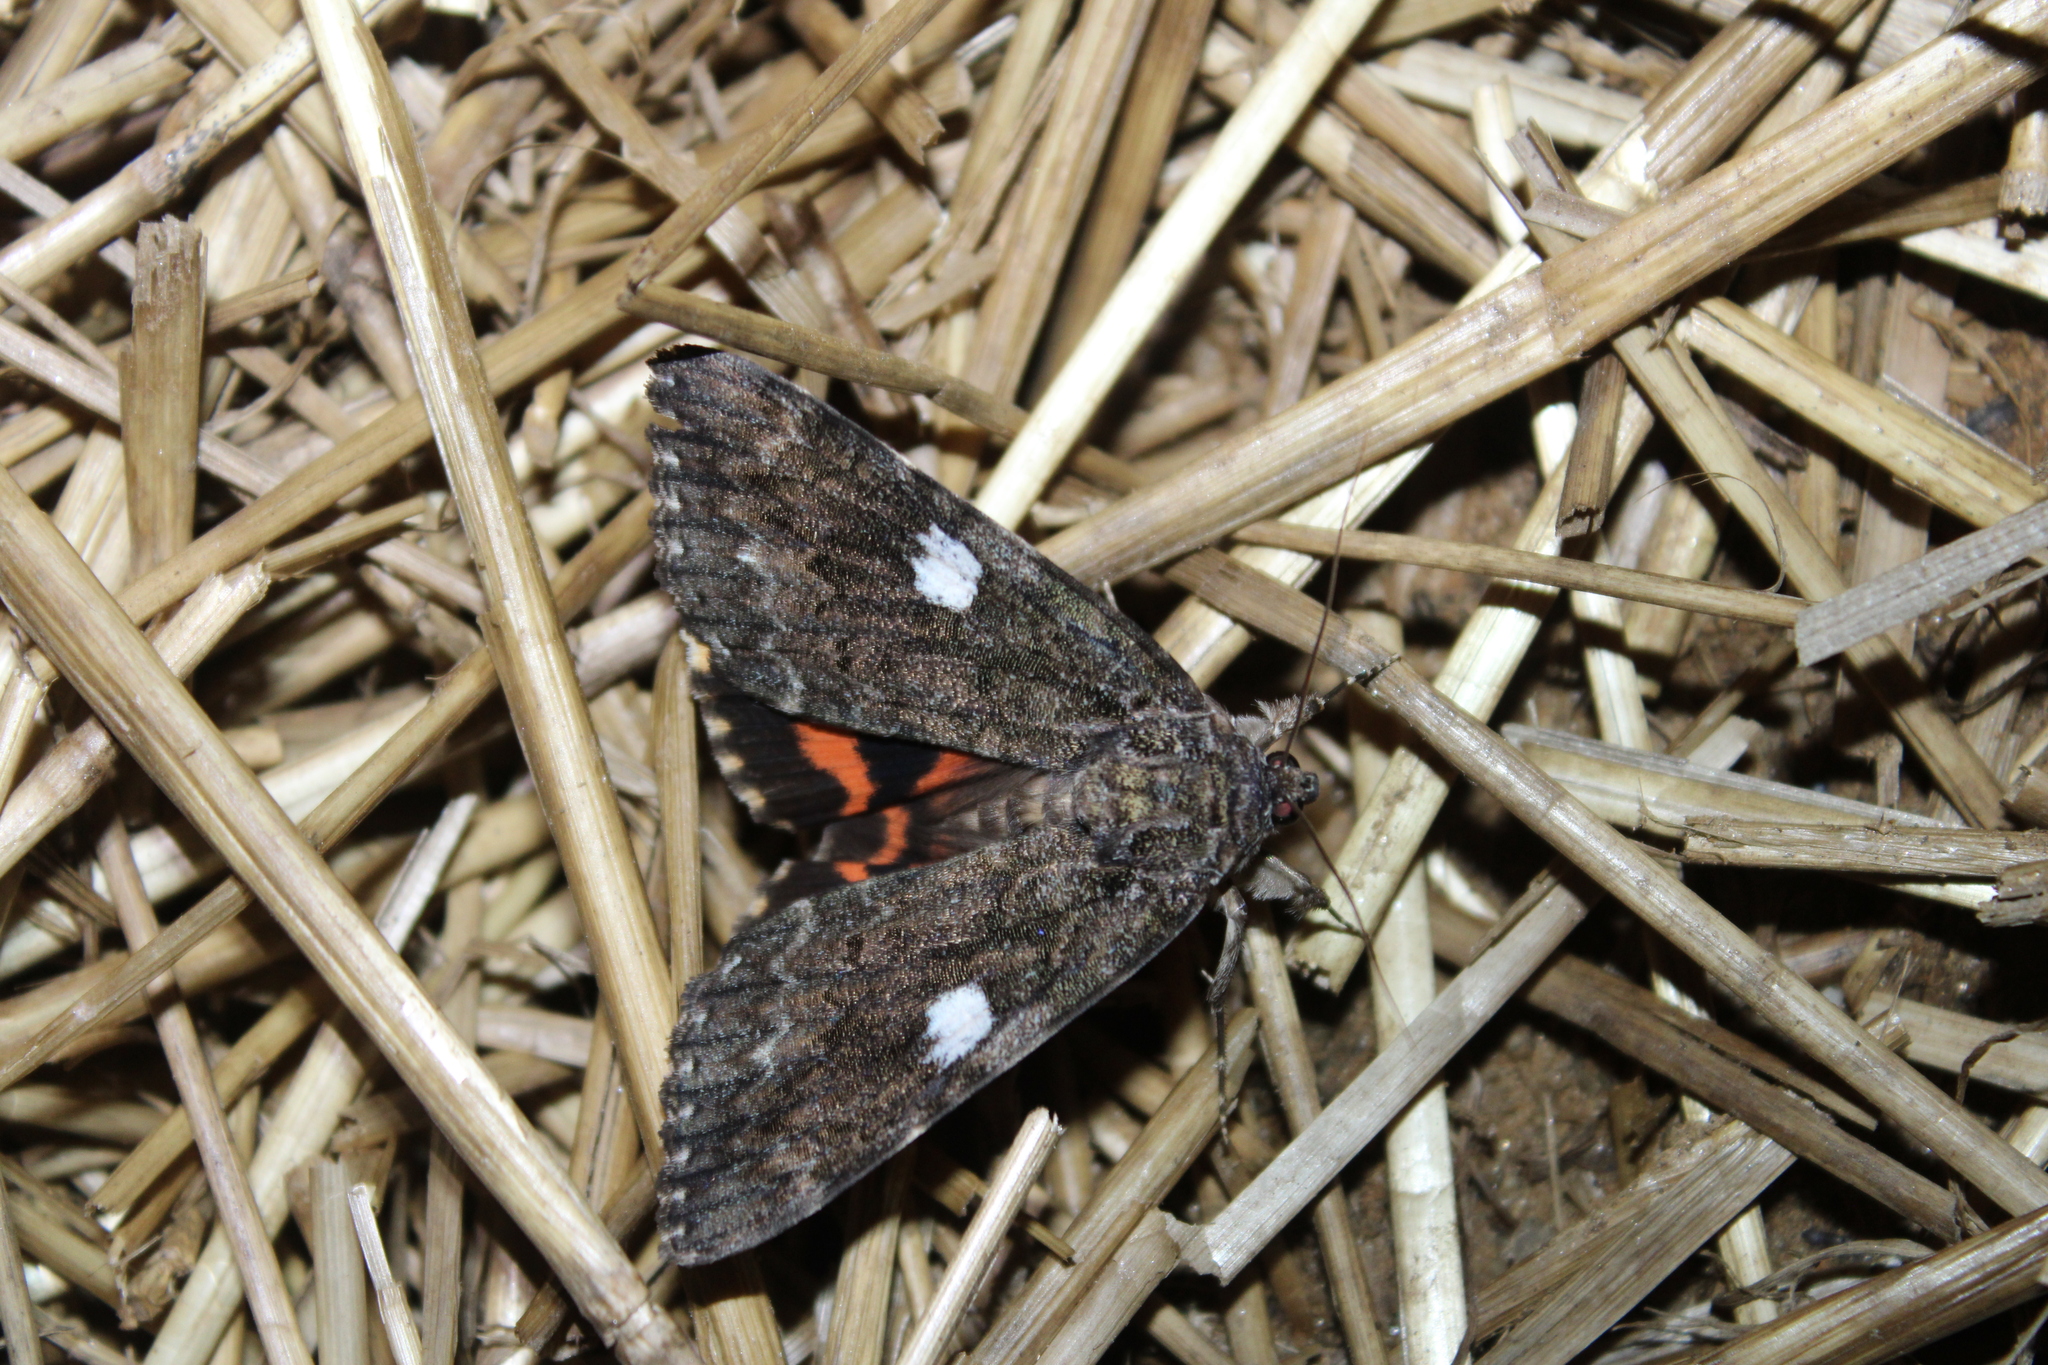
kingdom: Animalia
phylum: Arthropoda
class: Insecta
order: Lepidoptera
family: Erebidae
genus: Catocala
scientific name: Catocala ilia
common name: Ilia underwing
